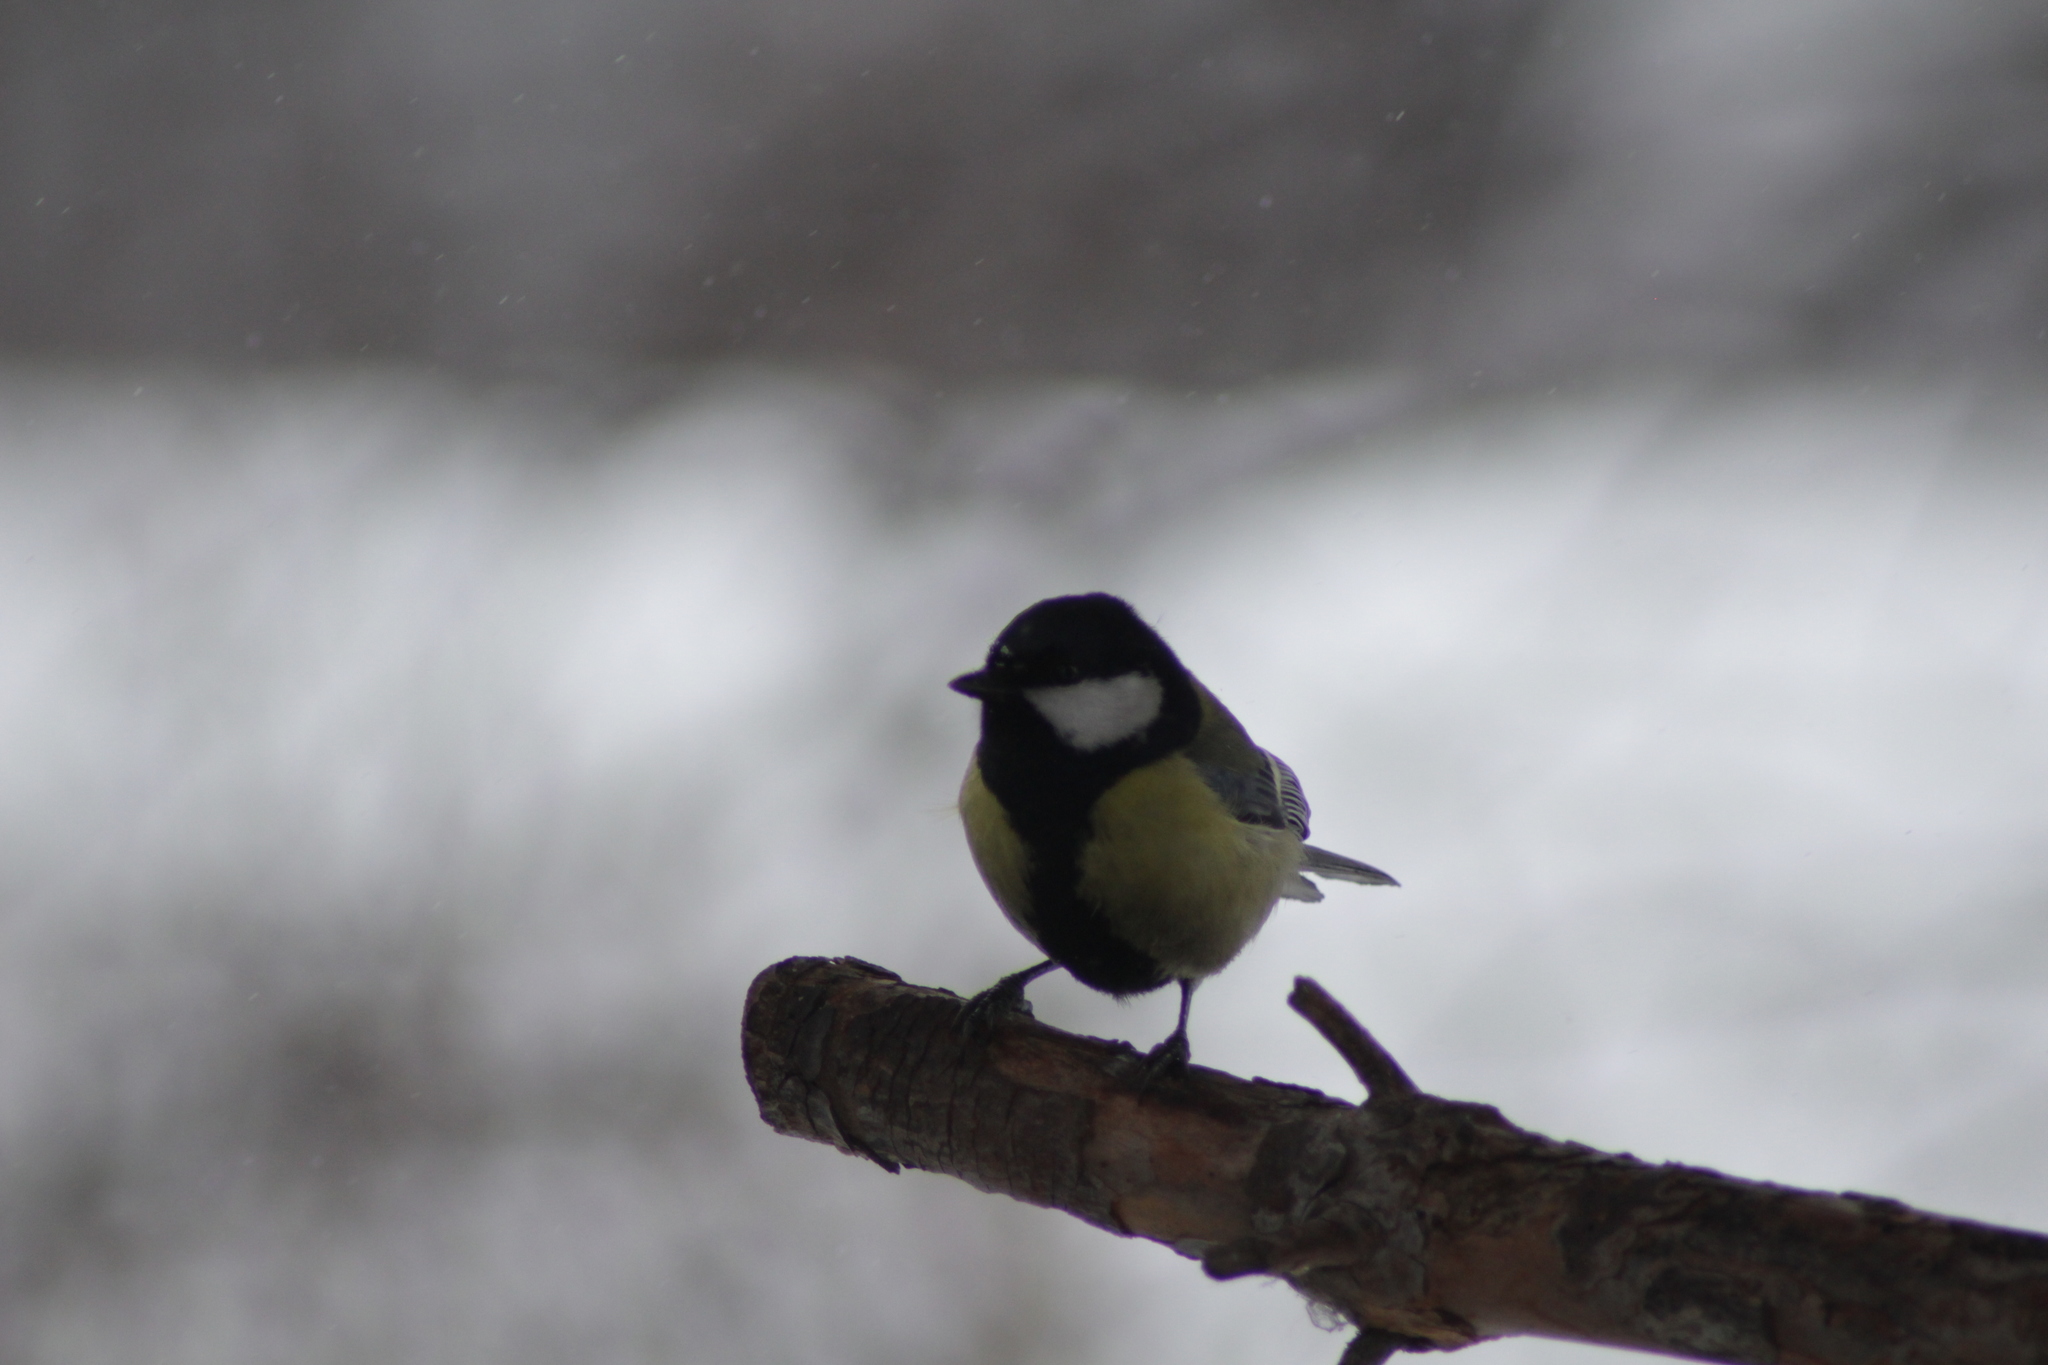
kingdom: Animalia
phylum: Chordata
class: Aves
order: Passeriformes
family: Paridae
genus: Parus
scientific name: Parus major
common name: Great tit
